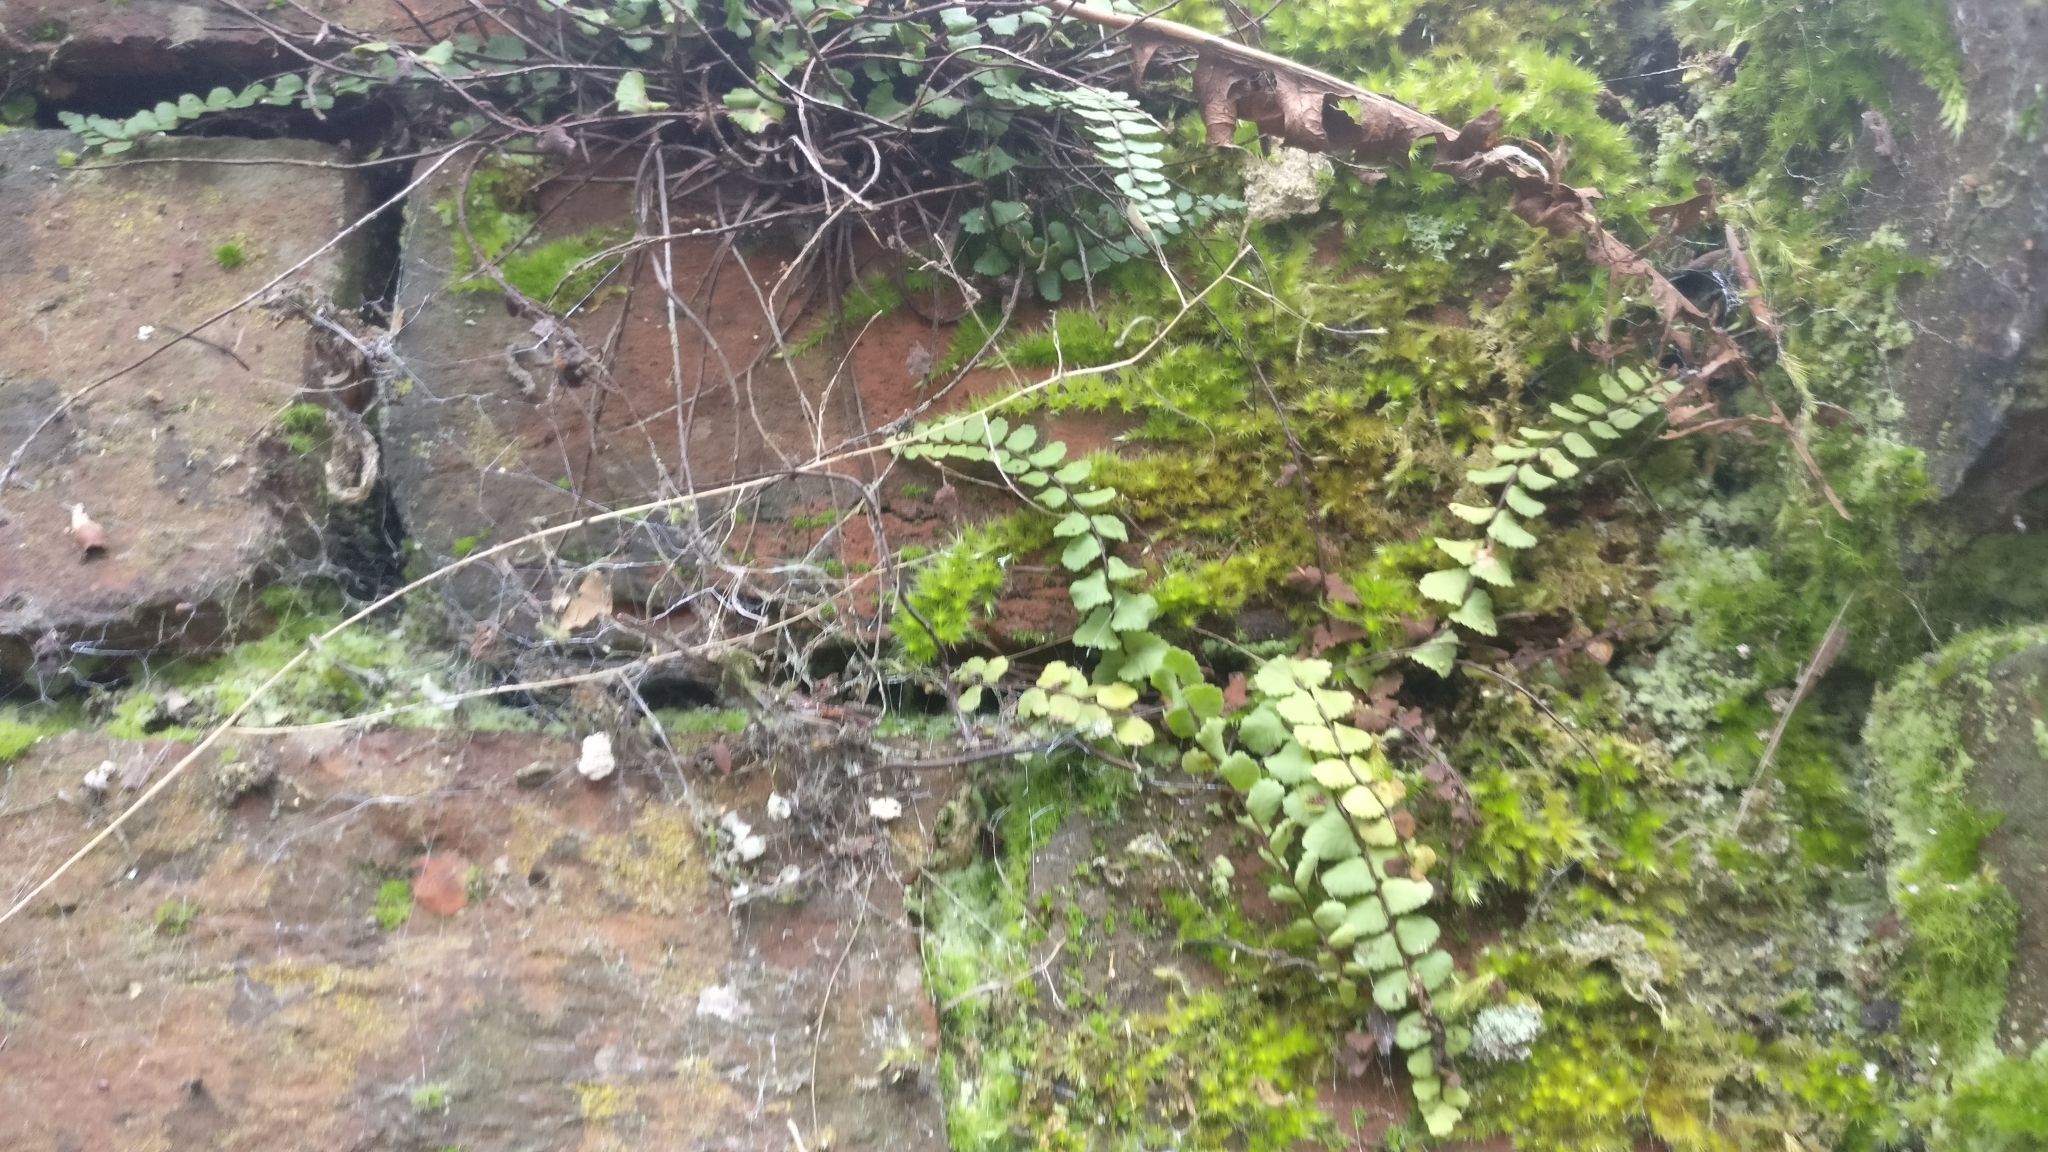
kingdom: Plantae
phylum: Tracheophyta
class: Polypodiopsida
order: Polypodiales
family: Aspleniaceae
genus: Asplenium
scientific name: Asplenium trichomanes
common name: Maidenhair spleenwort
